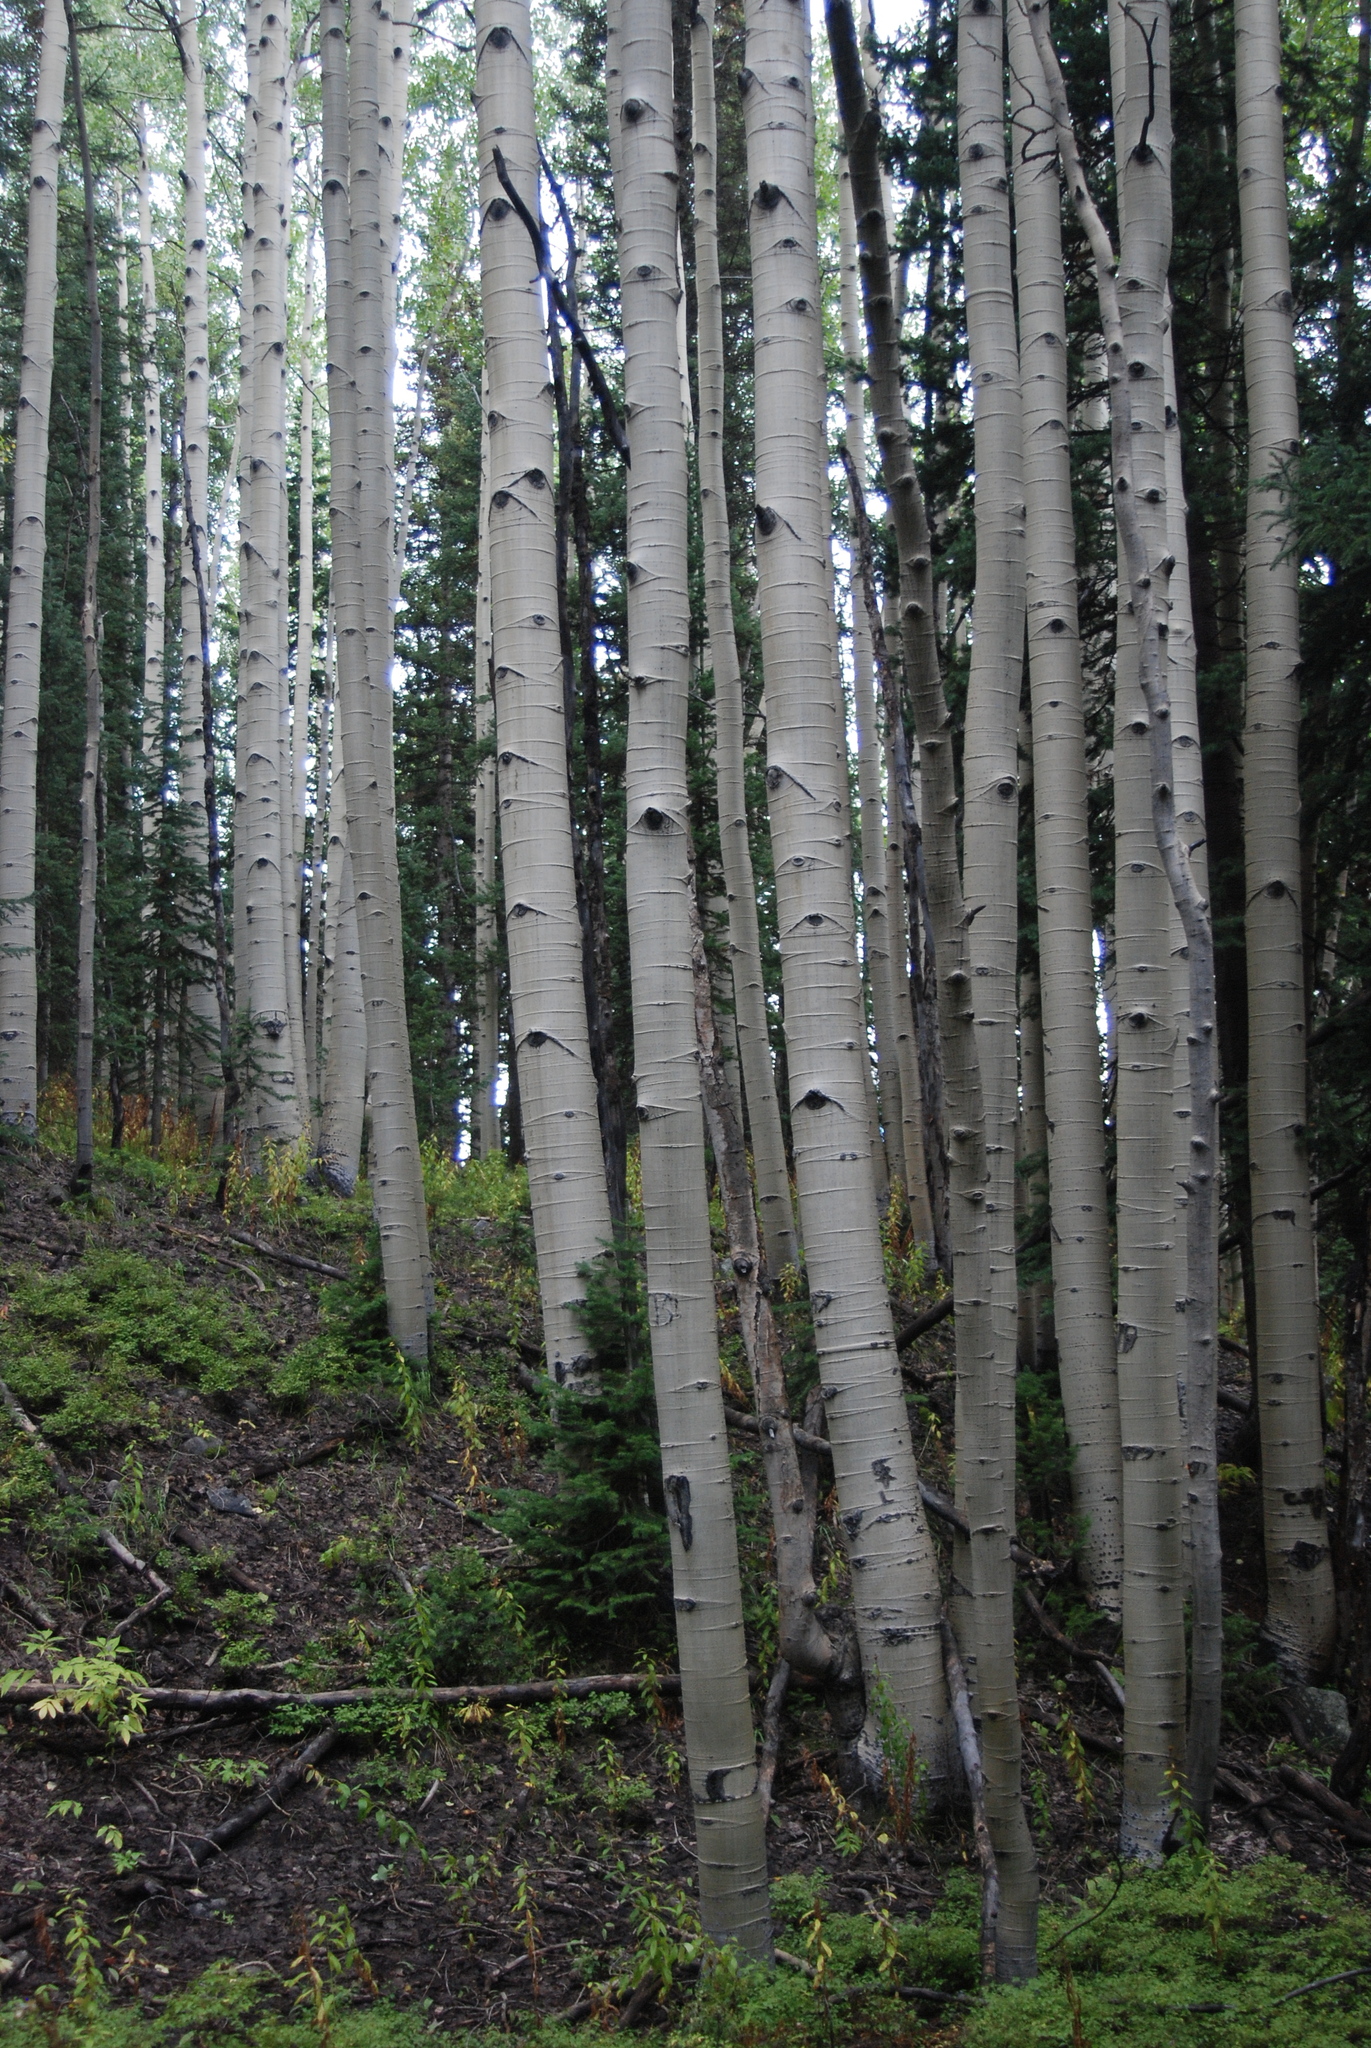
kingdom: Plantae
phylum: Tracheophyta
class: Magnoliopsida
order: Malpighiales
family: Salicaceae
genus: Populus
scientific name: Populus tremuloides
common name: Quaking aspen
